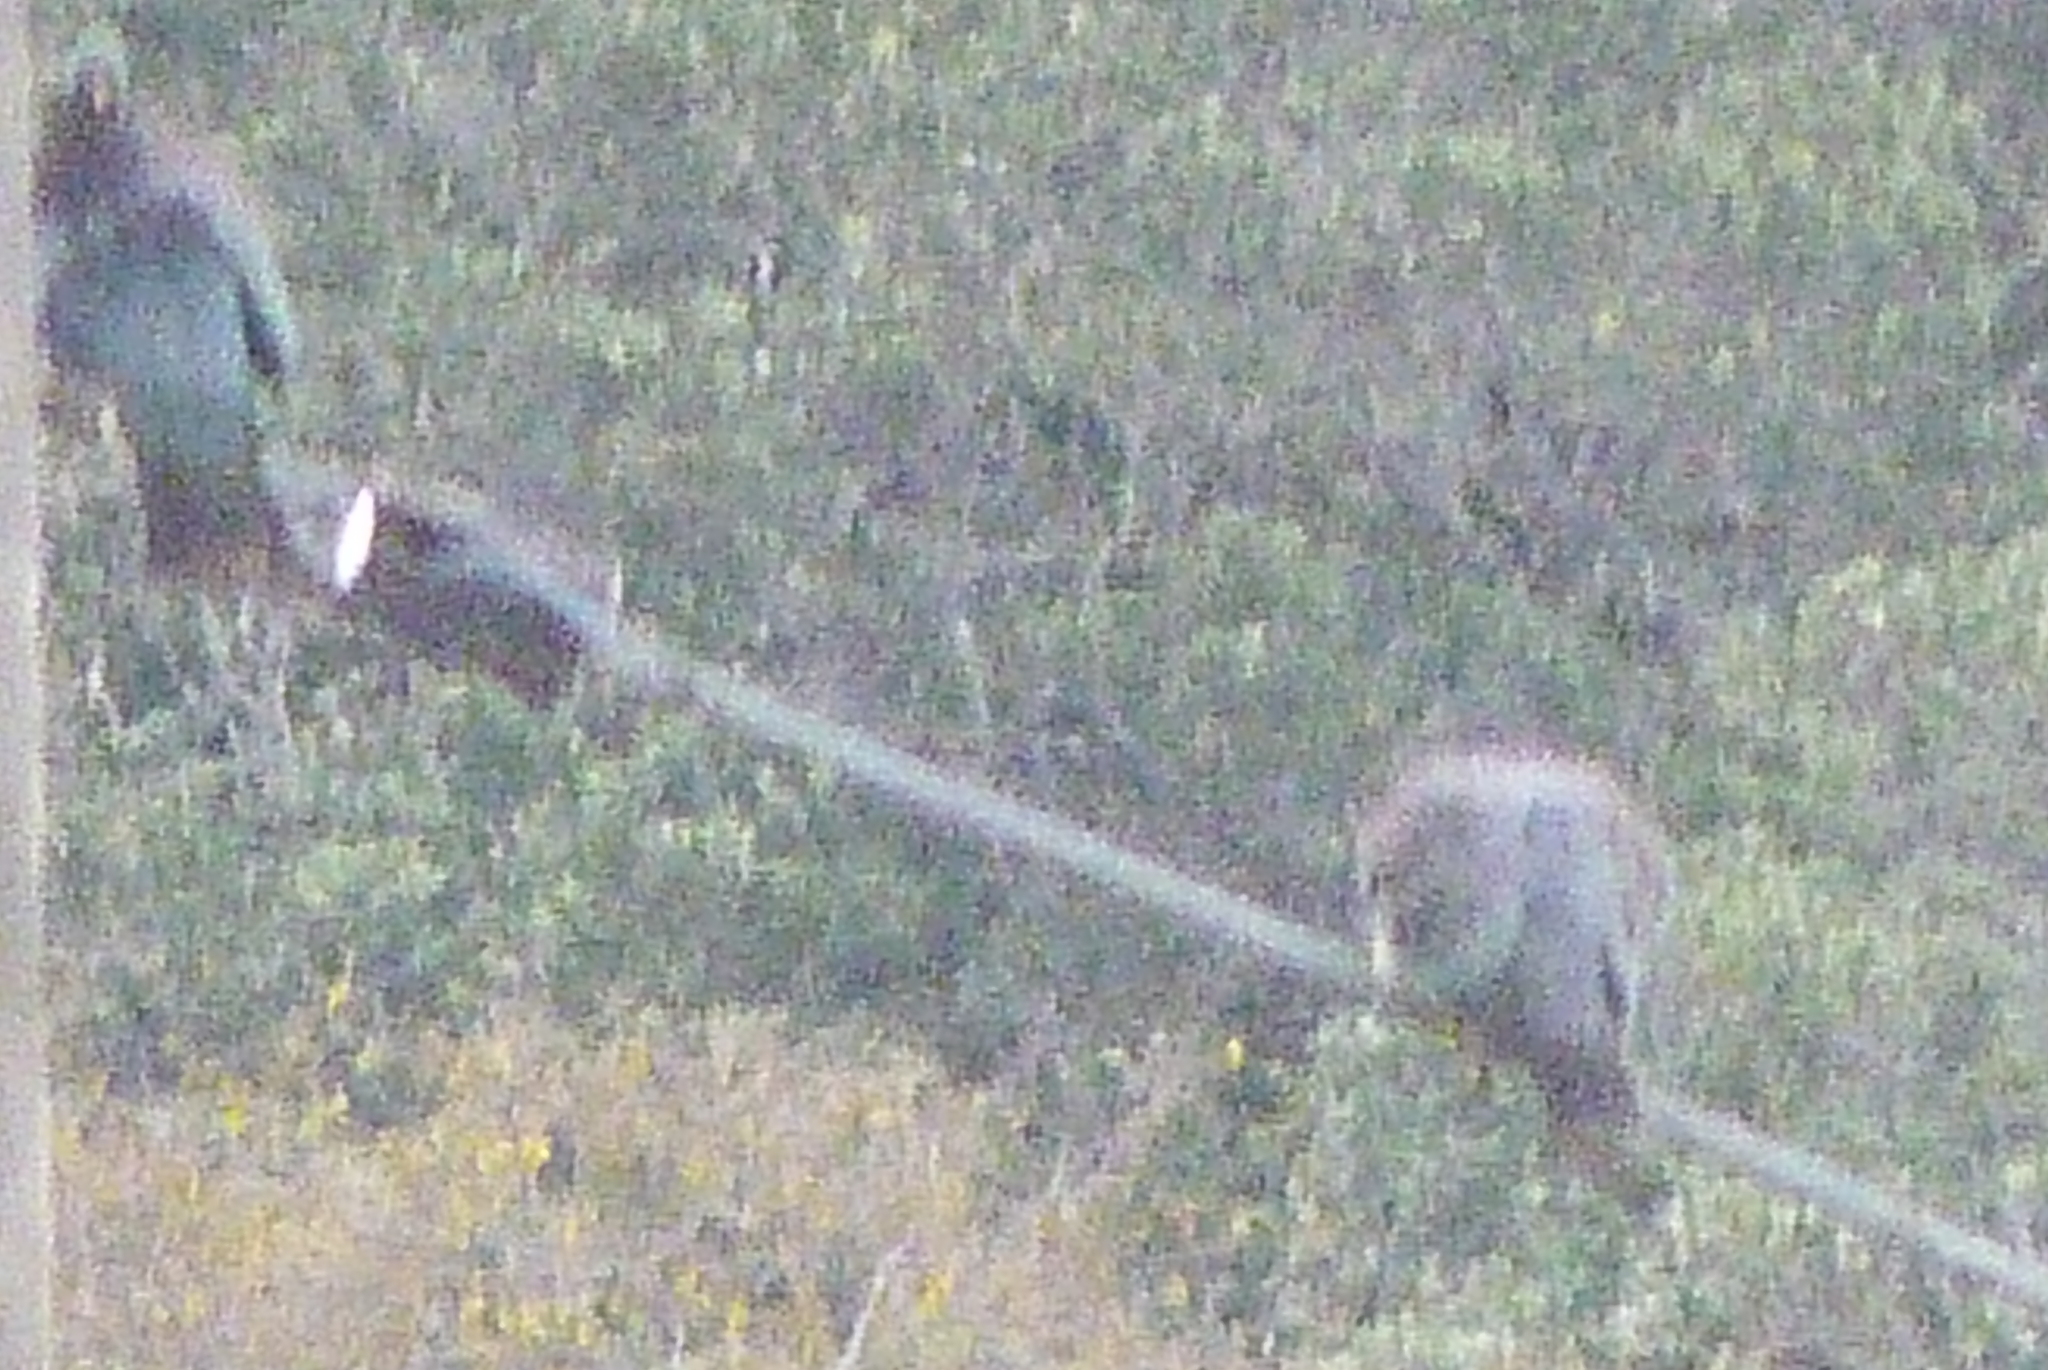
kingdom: Animalia
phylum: Chordata
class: Aves
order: Columbiformes
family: Columbidae
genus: Hemiphaga
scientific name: Hemiphaga novaeseelandiae
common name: New zealand pigeon
